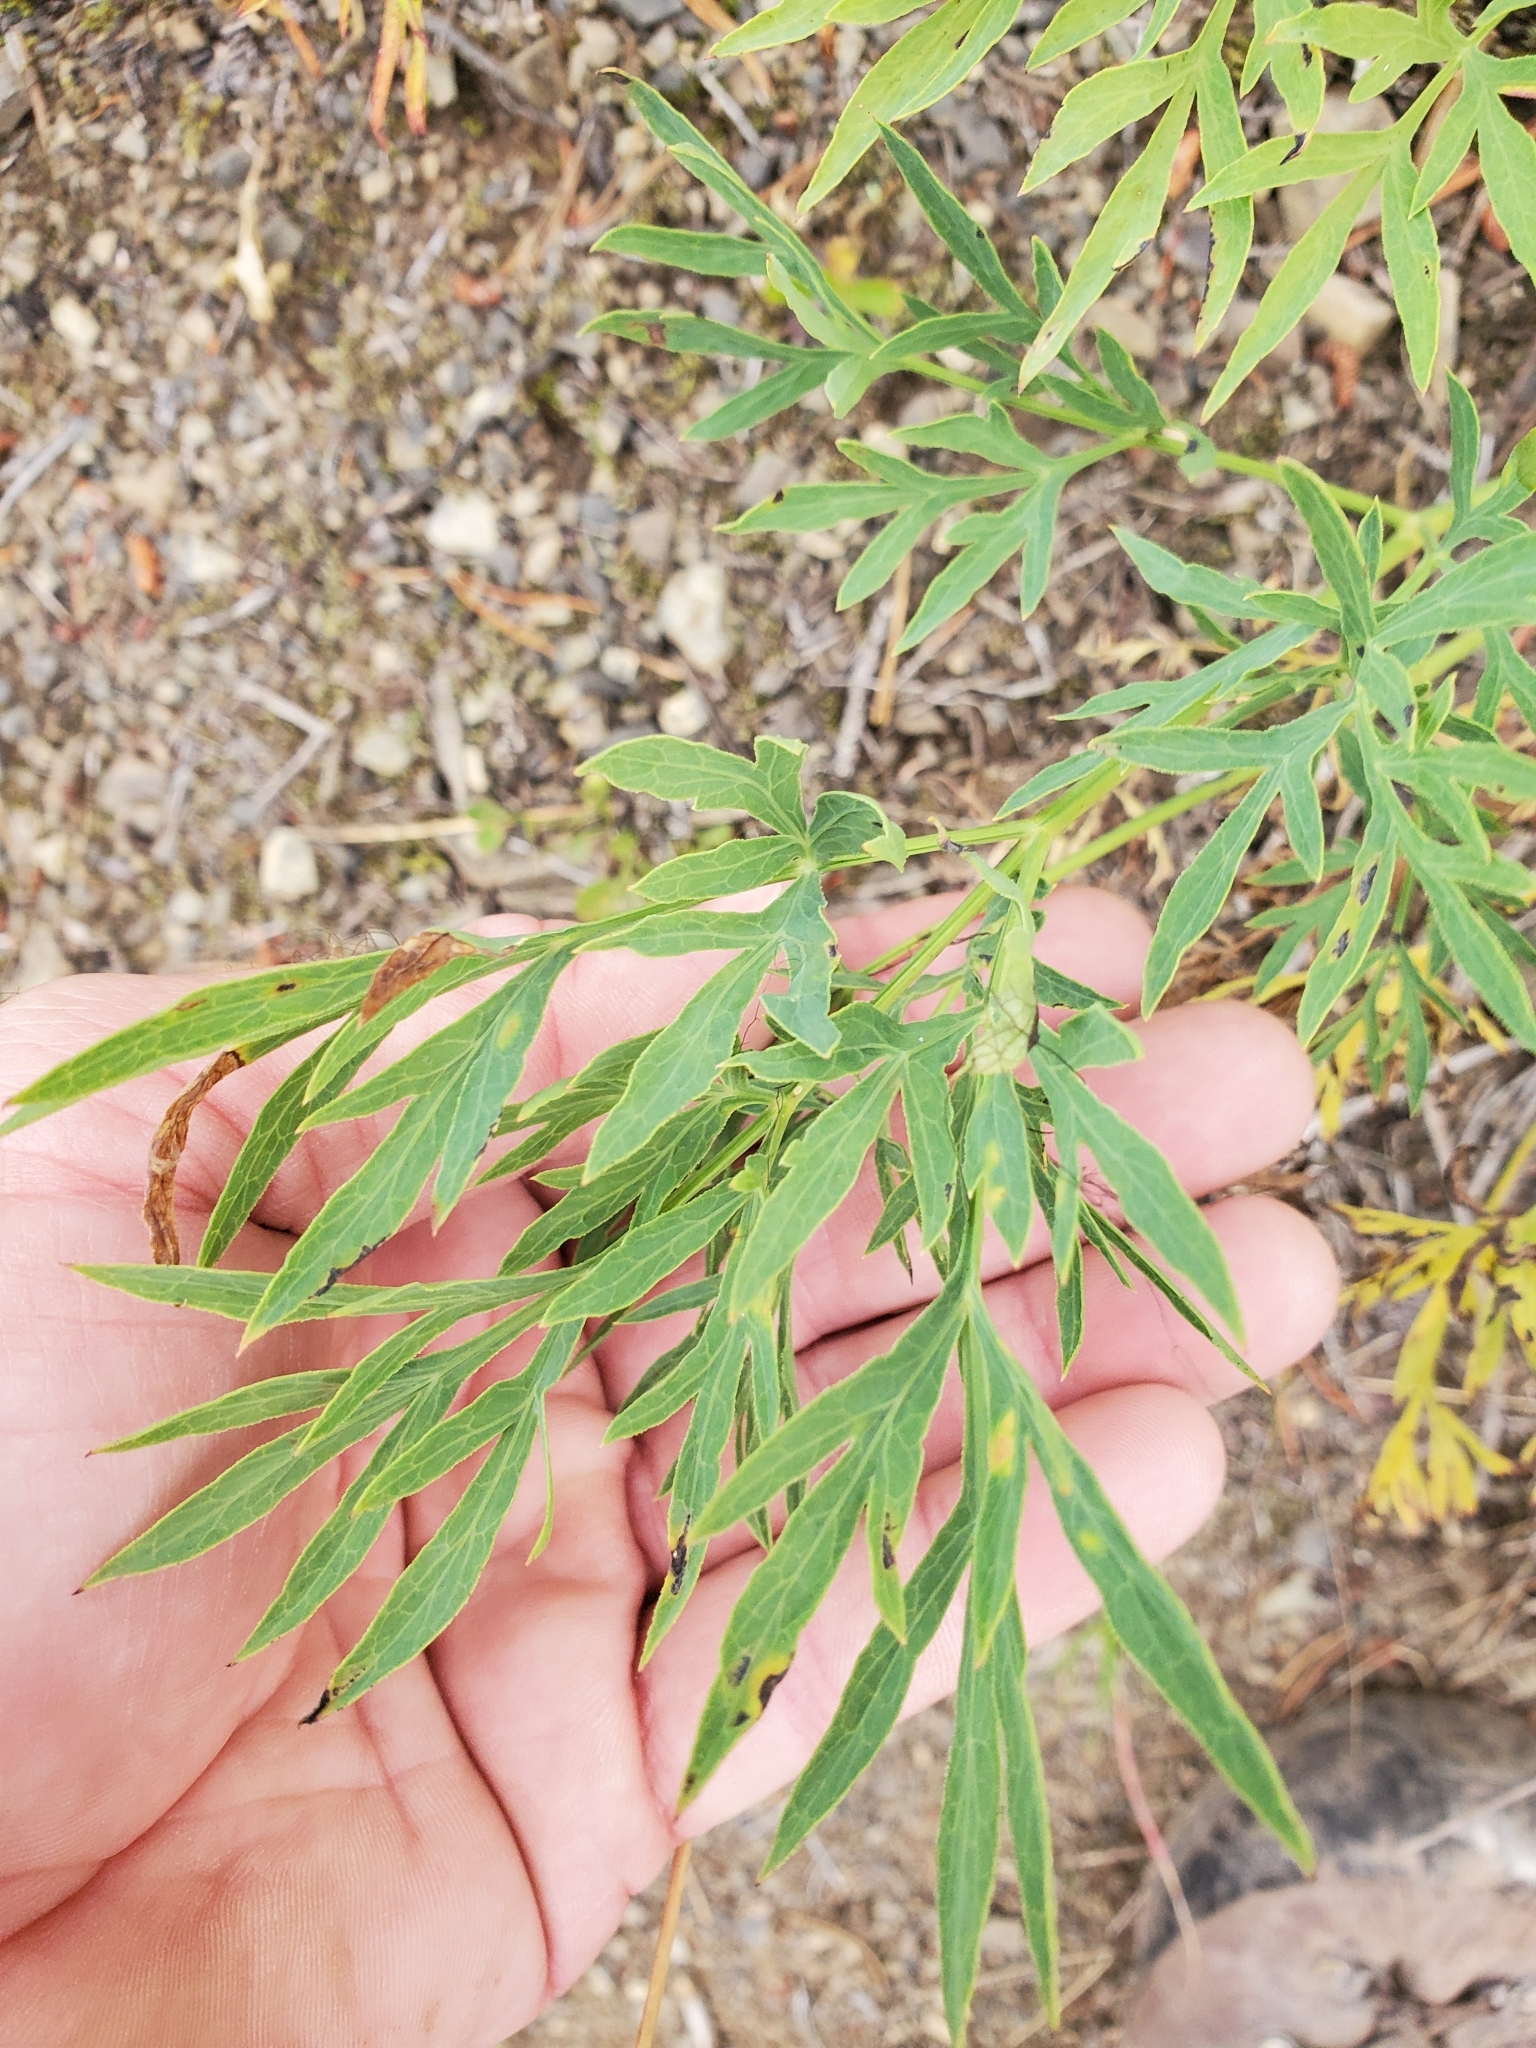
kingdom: Plantae
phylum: Tracheophyta
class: Magnoliopsida
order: Apiales
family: Apiaceae
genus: Lomatium
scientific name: Lomatium brandegeei
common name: Brandegee's desert-parsley
